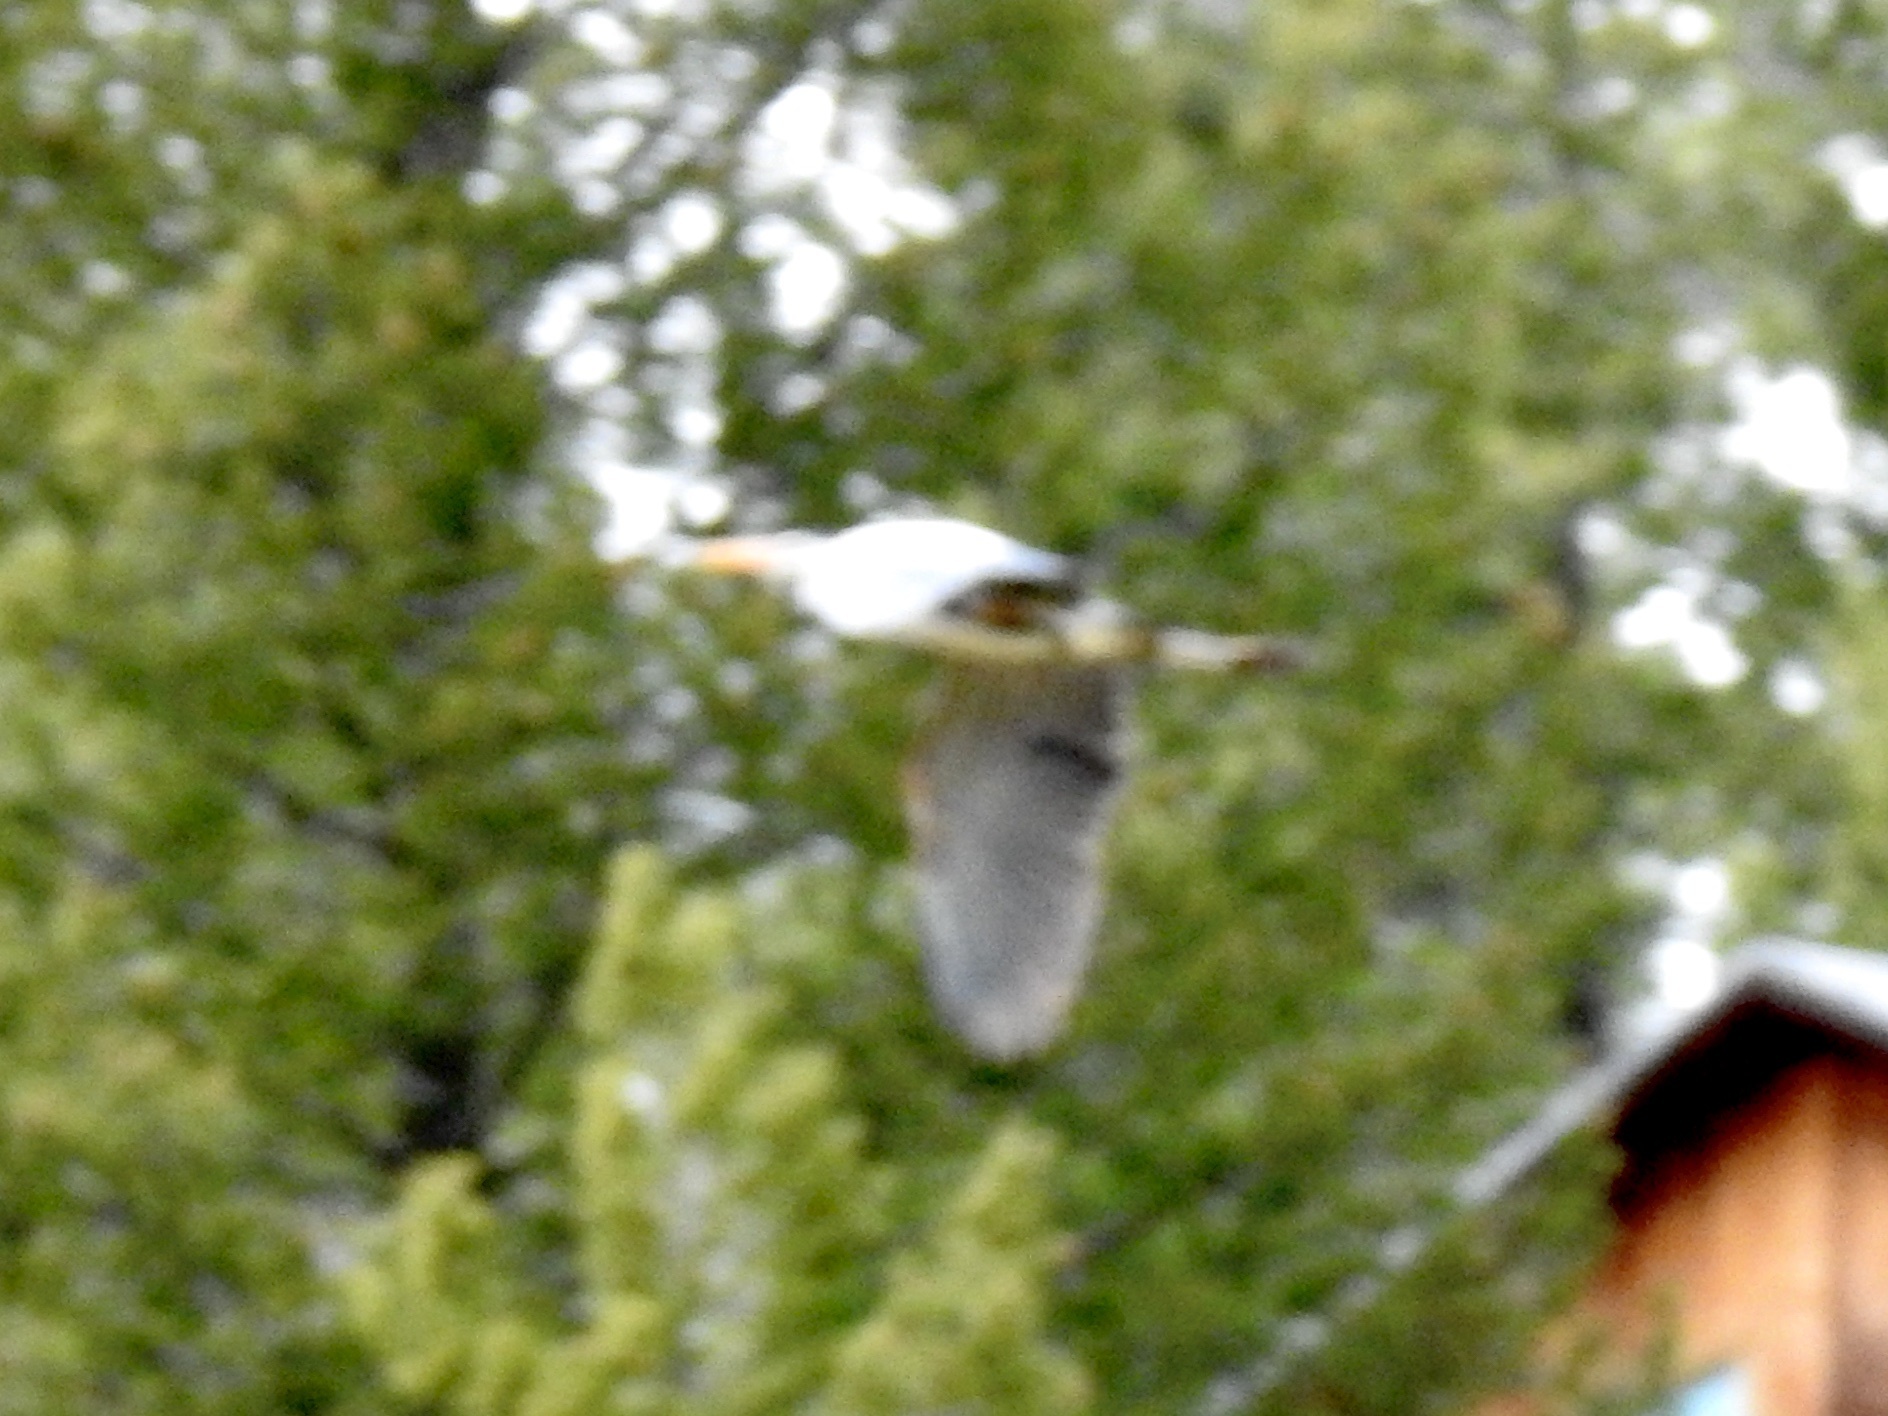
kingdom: Animalia
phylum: Chordata
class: Aves
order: Pelecaniformes
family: Ardeidae
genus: Ardea
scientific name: Ardea herodias
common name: Great blue heron
